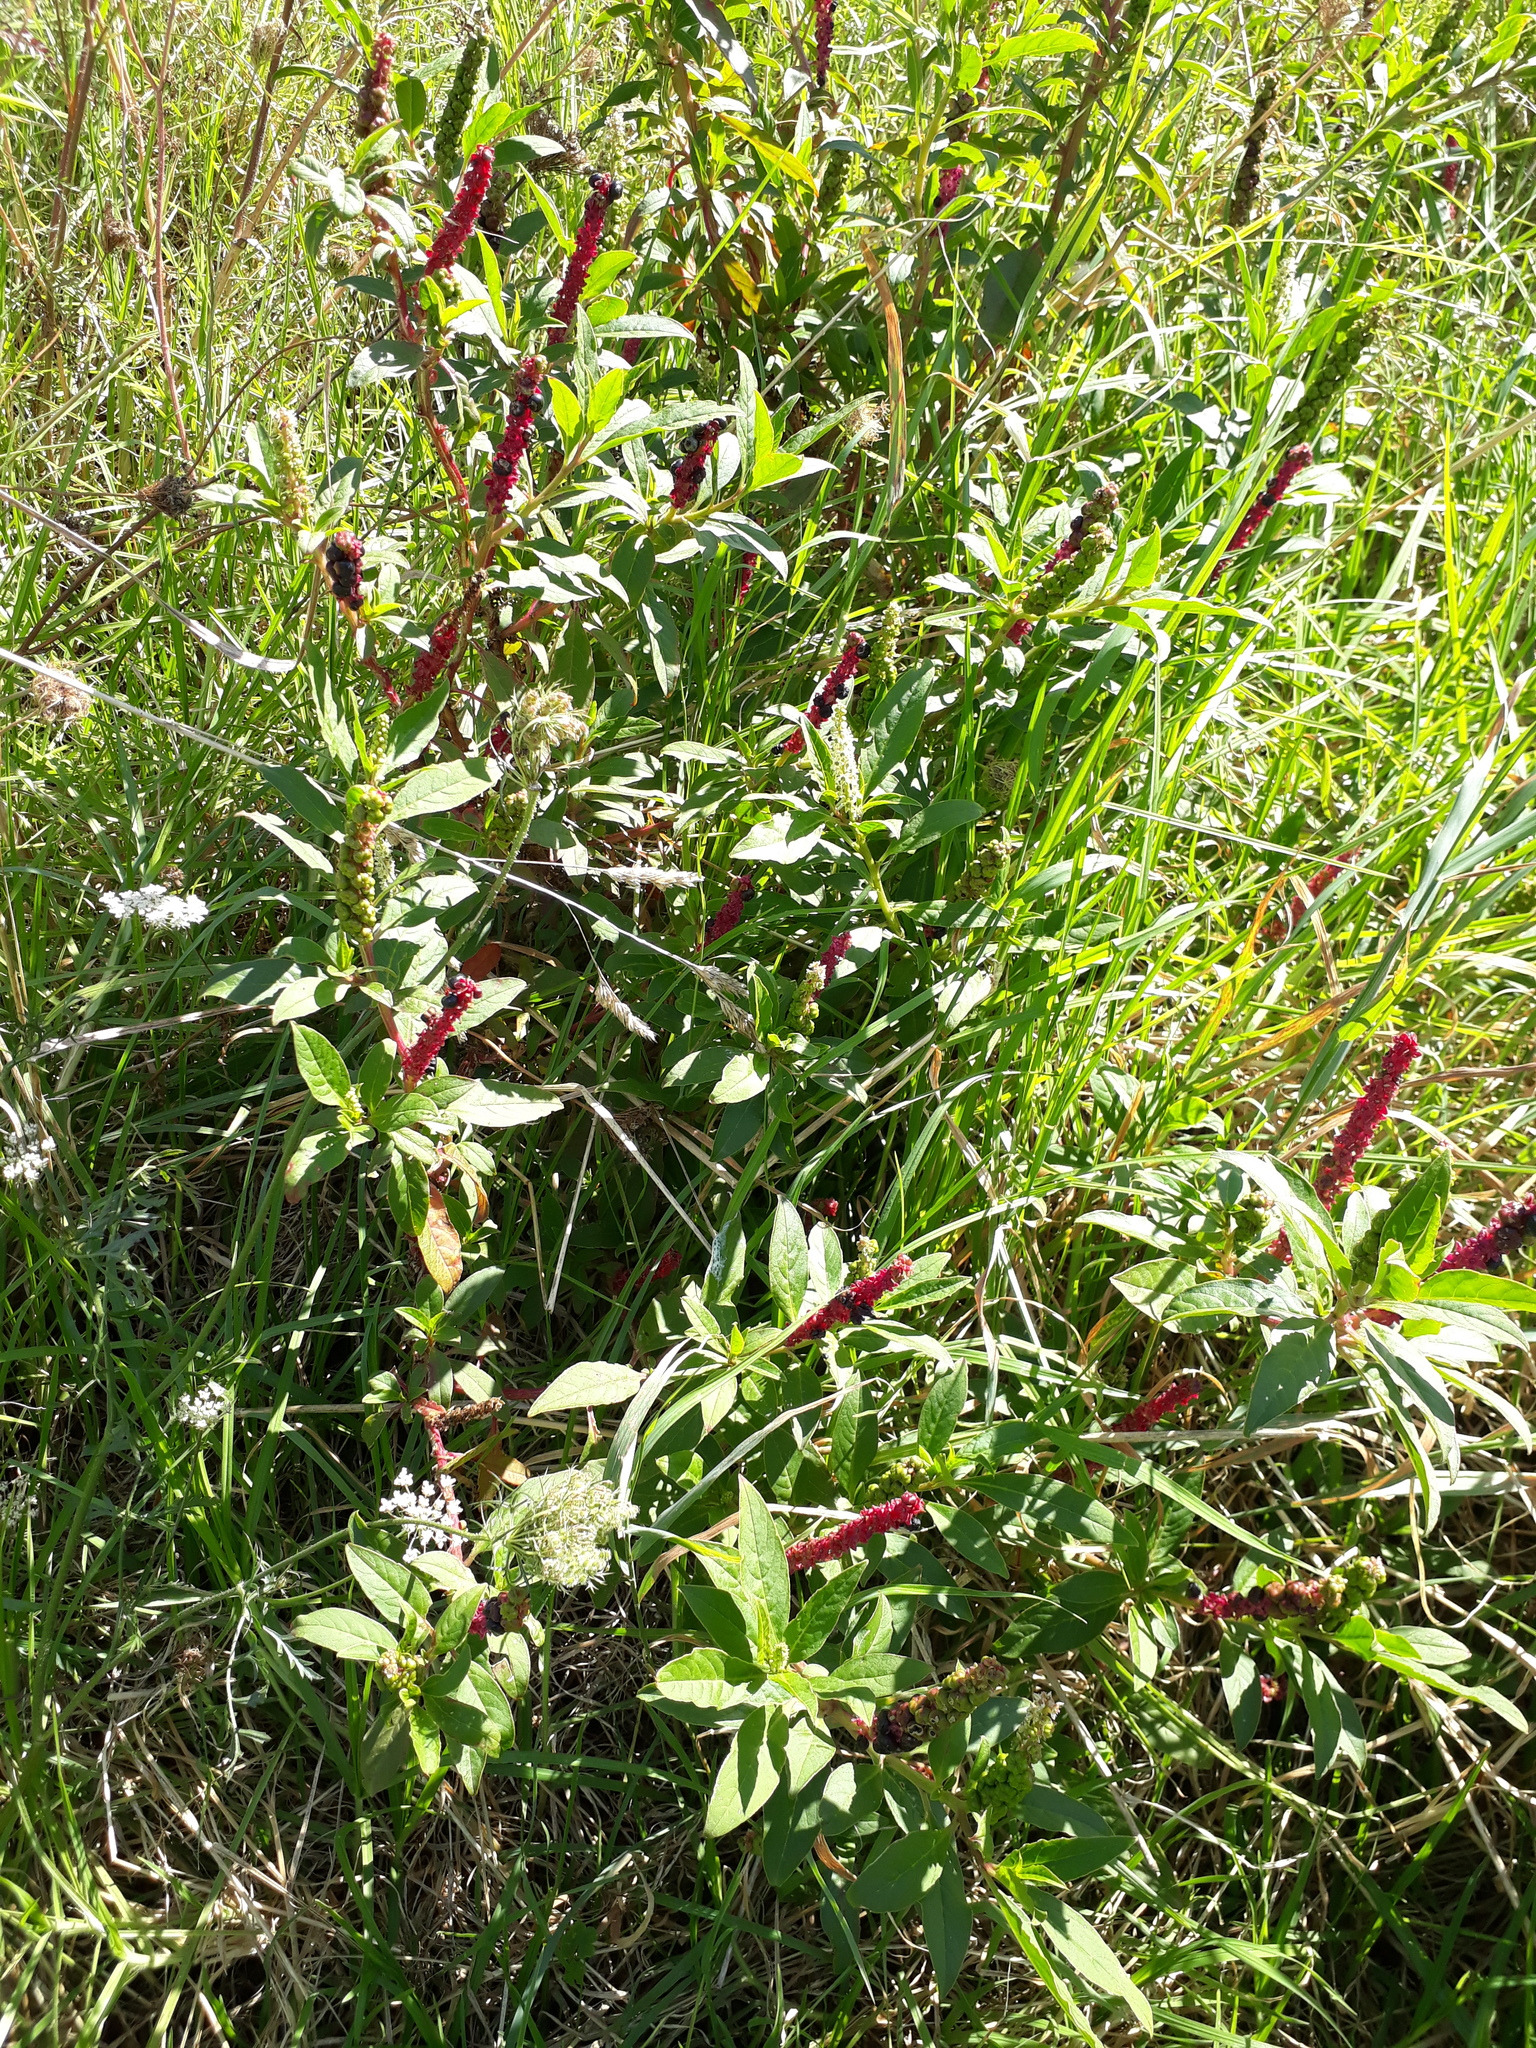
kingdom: Plantae
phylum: Tracheophyta
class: Magnoliopsida
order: Caryophyllales
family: Phytolaccaceae
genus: Phytolacca
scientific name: Phytolacca icosandra
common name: Button pokeweed
